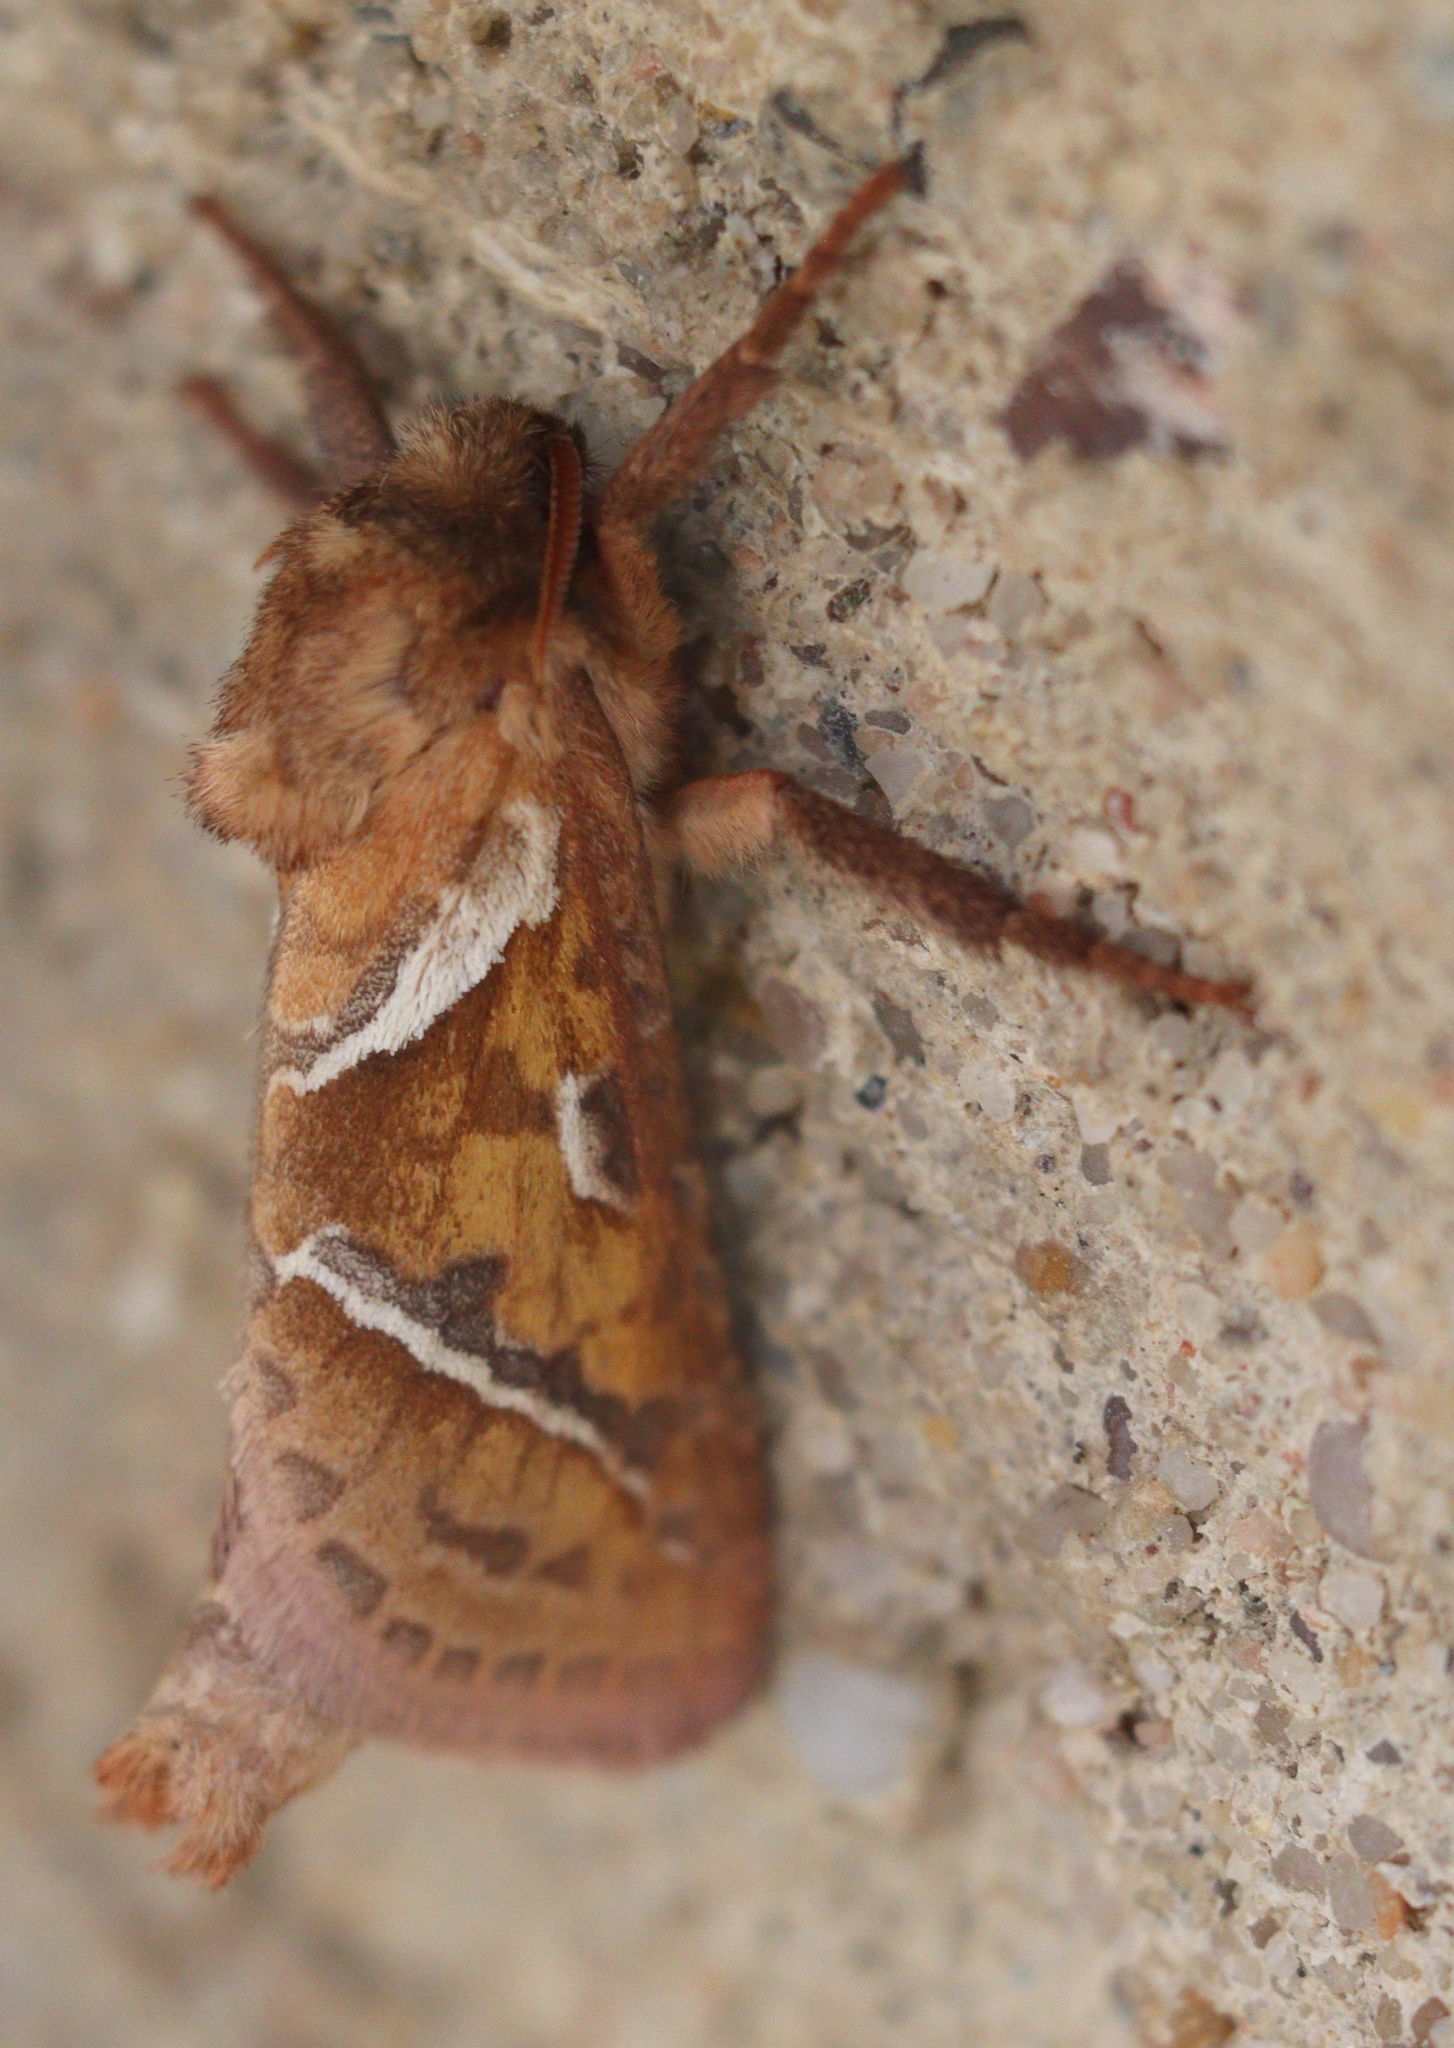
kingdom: Animalia
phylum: Arthropoda
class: Insecta
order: Lepidoptera
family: Hepialidae
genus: Triodia
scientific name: Triodia sylvina
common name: Orange swift
